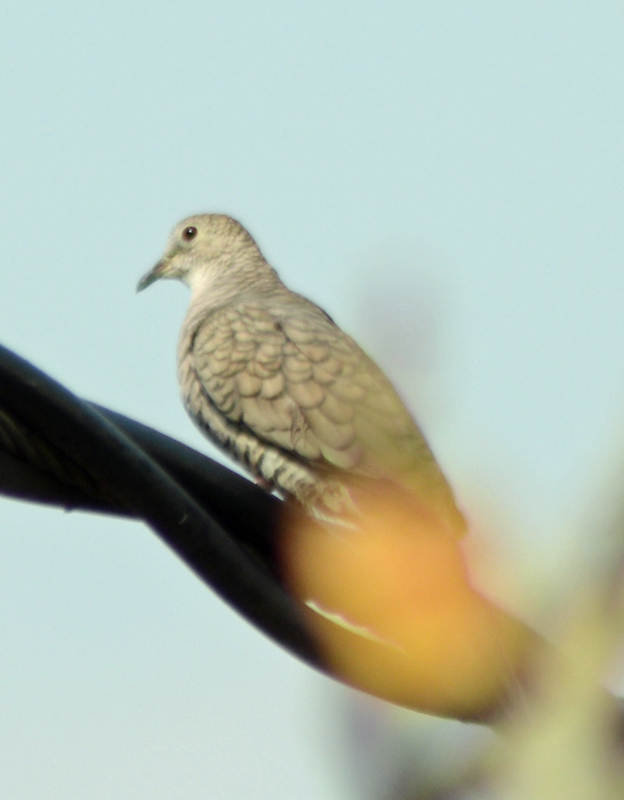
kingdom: Animalia
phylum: Chordata
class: Aves
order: Columbiformes
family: Columbidae
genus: Columbina
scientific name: Columbina inca
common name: Inca dove
